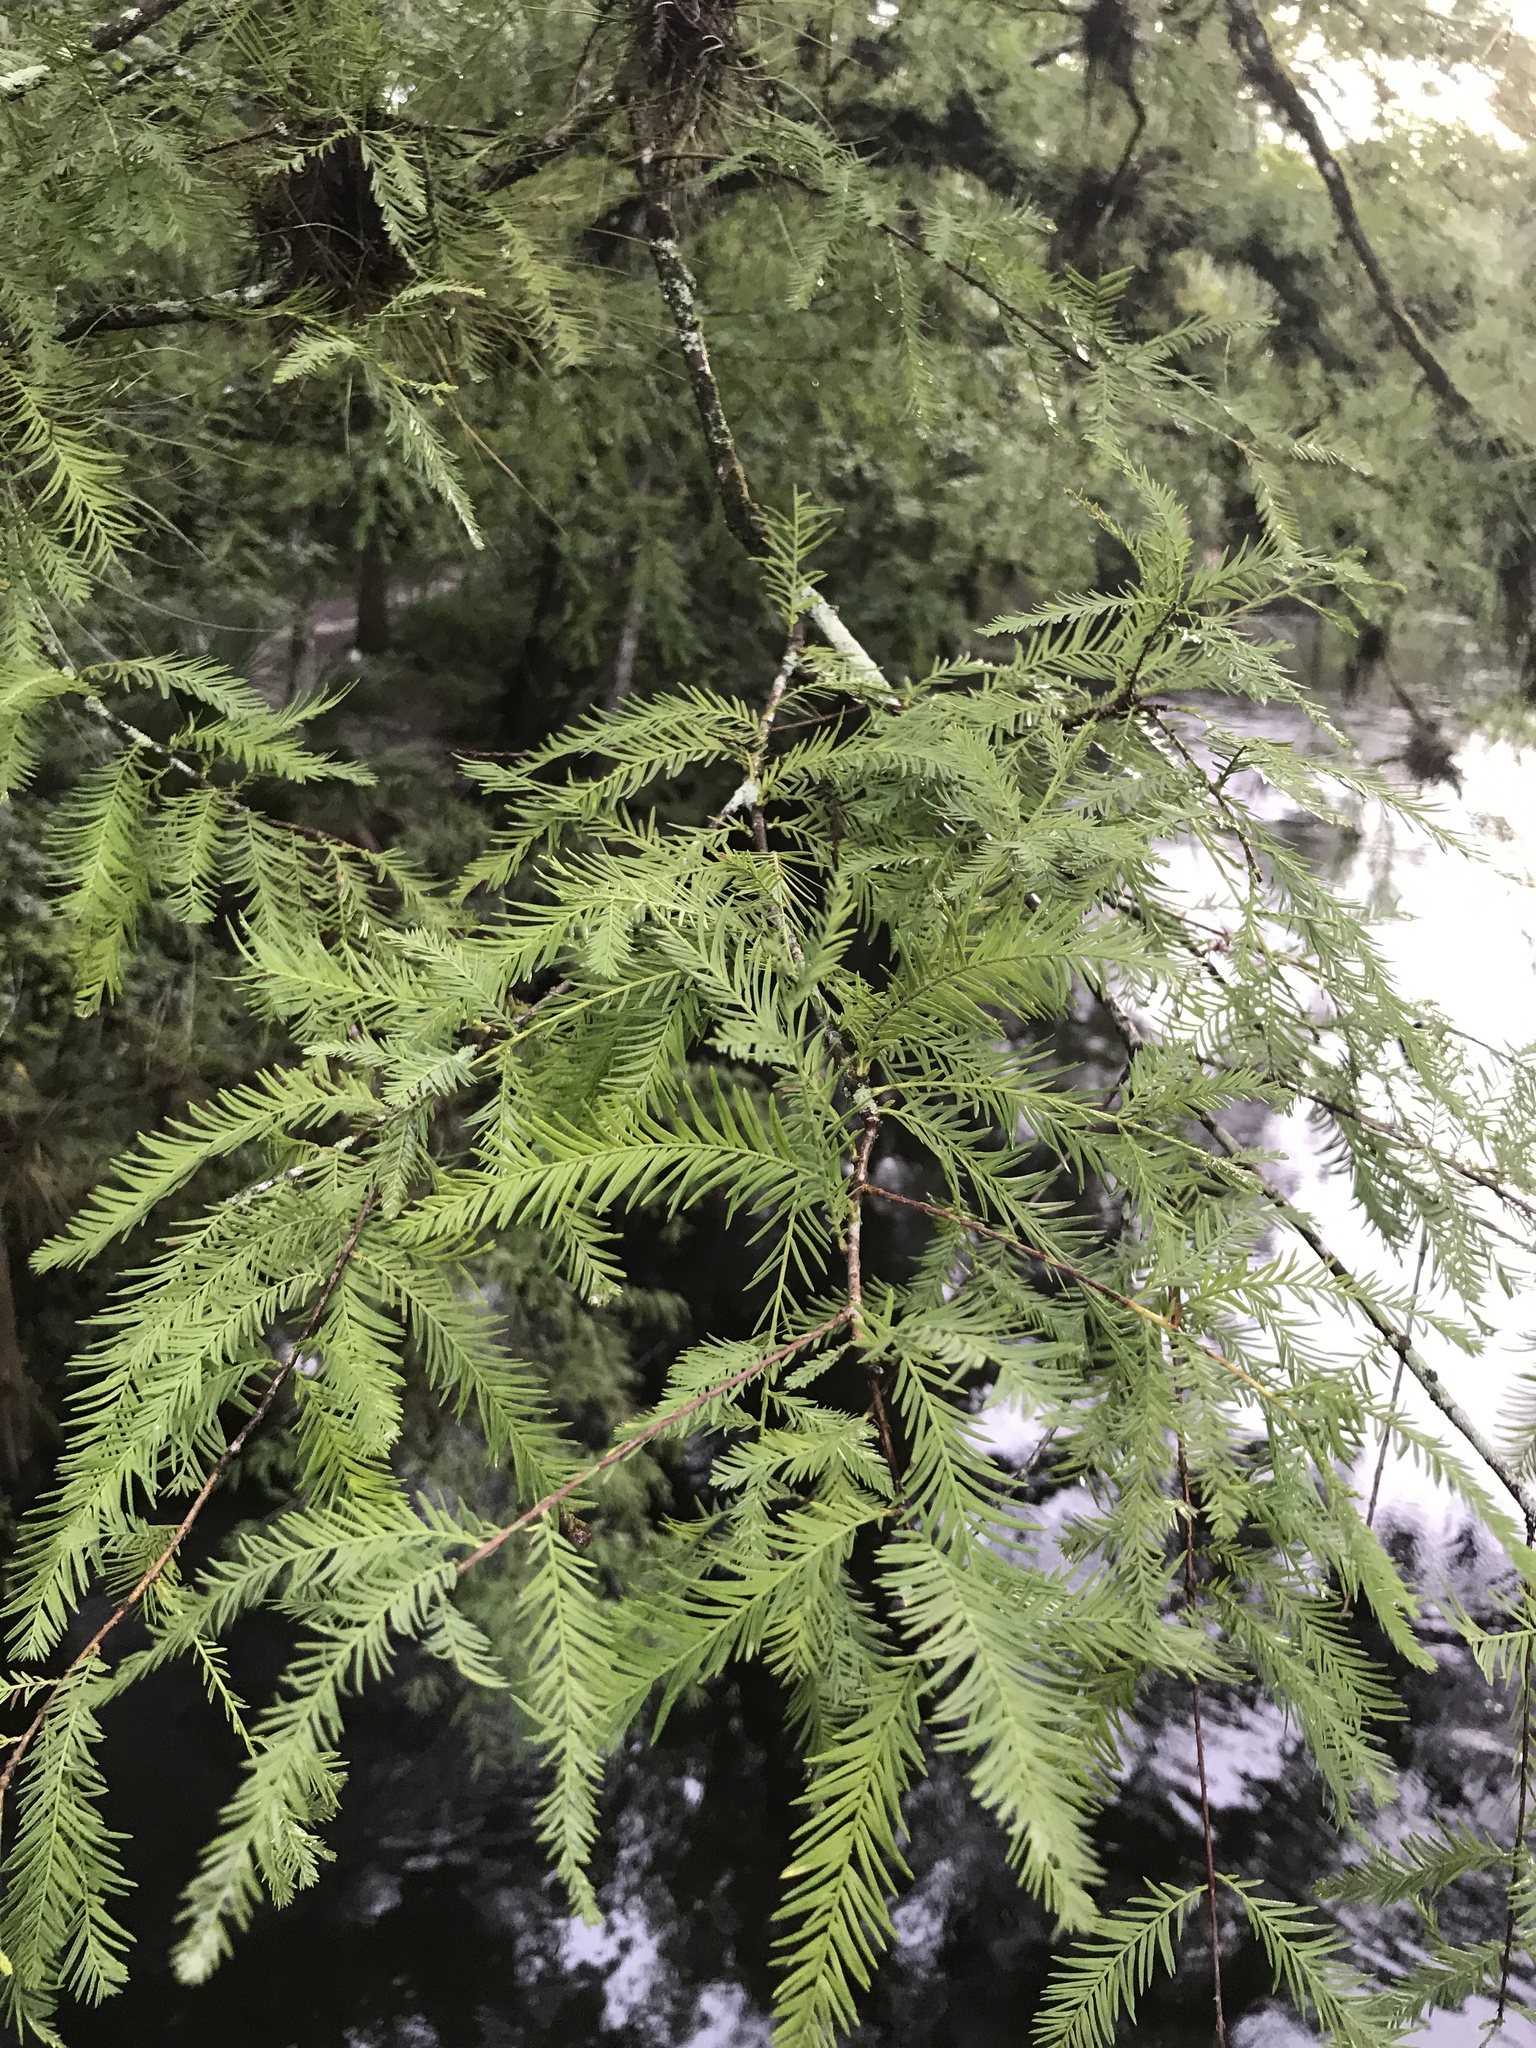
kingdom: Plantae
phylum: Tracheophyta
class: Pinopsida
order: Pinales
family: Cupressaceae
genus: Taxodium
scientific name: Taxodium distichum
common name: Bald cypress
